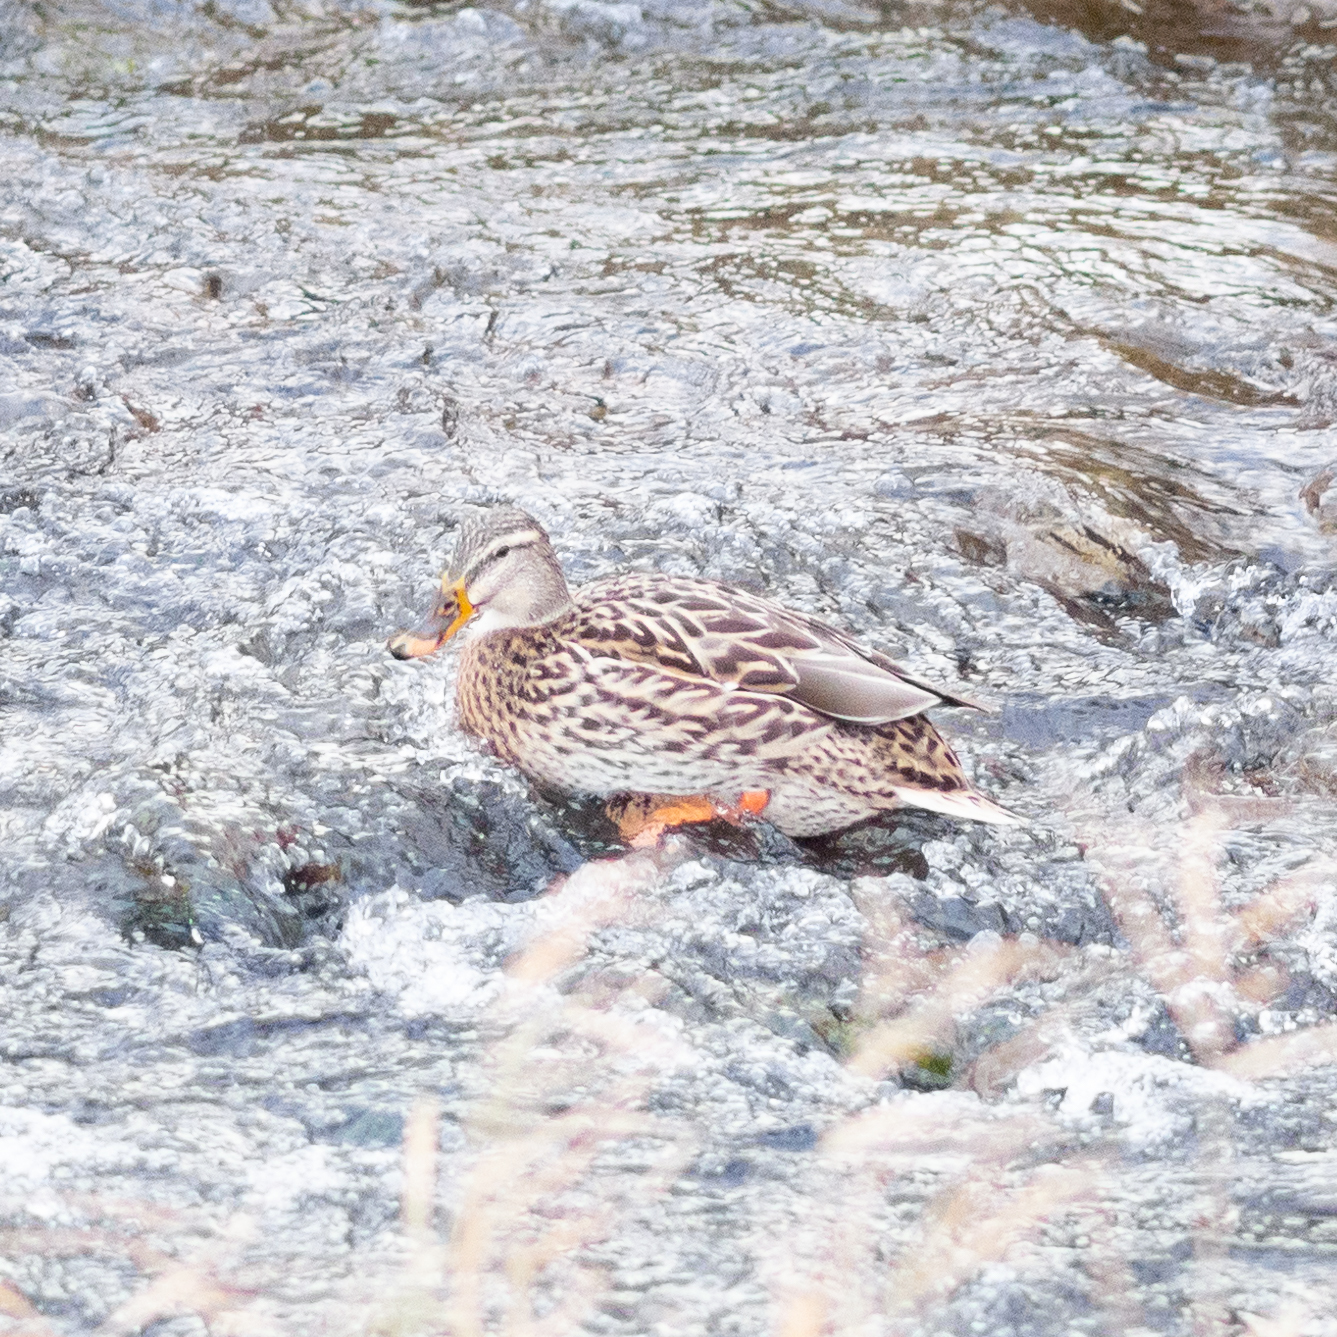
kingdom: Animalia
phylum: Chordata
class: Aves
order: Anseriformes
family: Anatidae
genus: Anas
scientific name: Anas platyrhynchos
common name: Mallard
